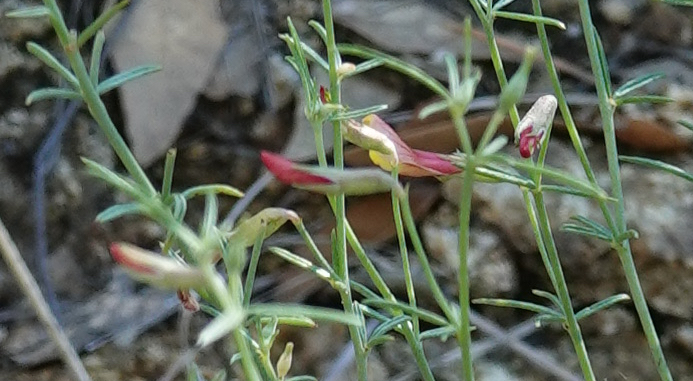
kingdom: Plantae
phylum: Tracheophyta
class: Magnoliopsida
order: Fabales
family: Fabaceae
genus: Acmispon
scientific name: Acmispon oroboides
